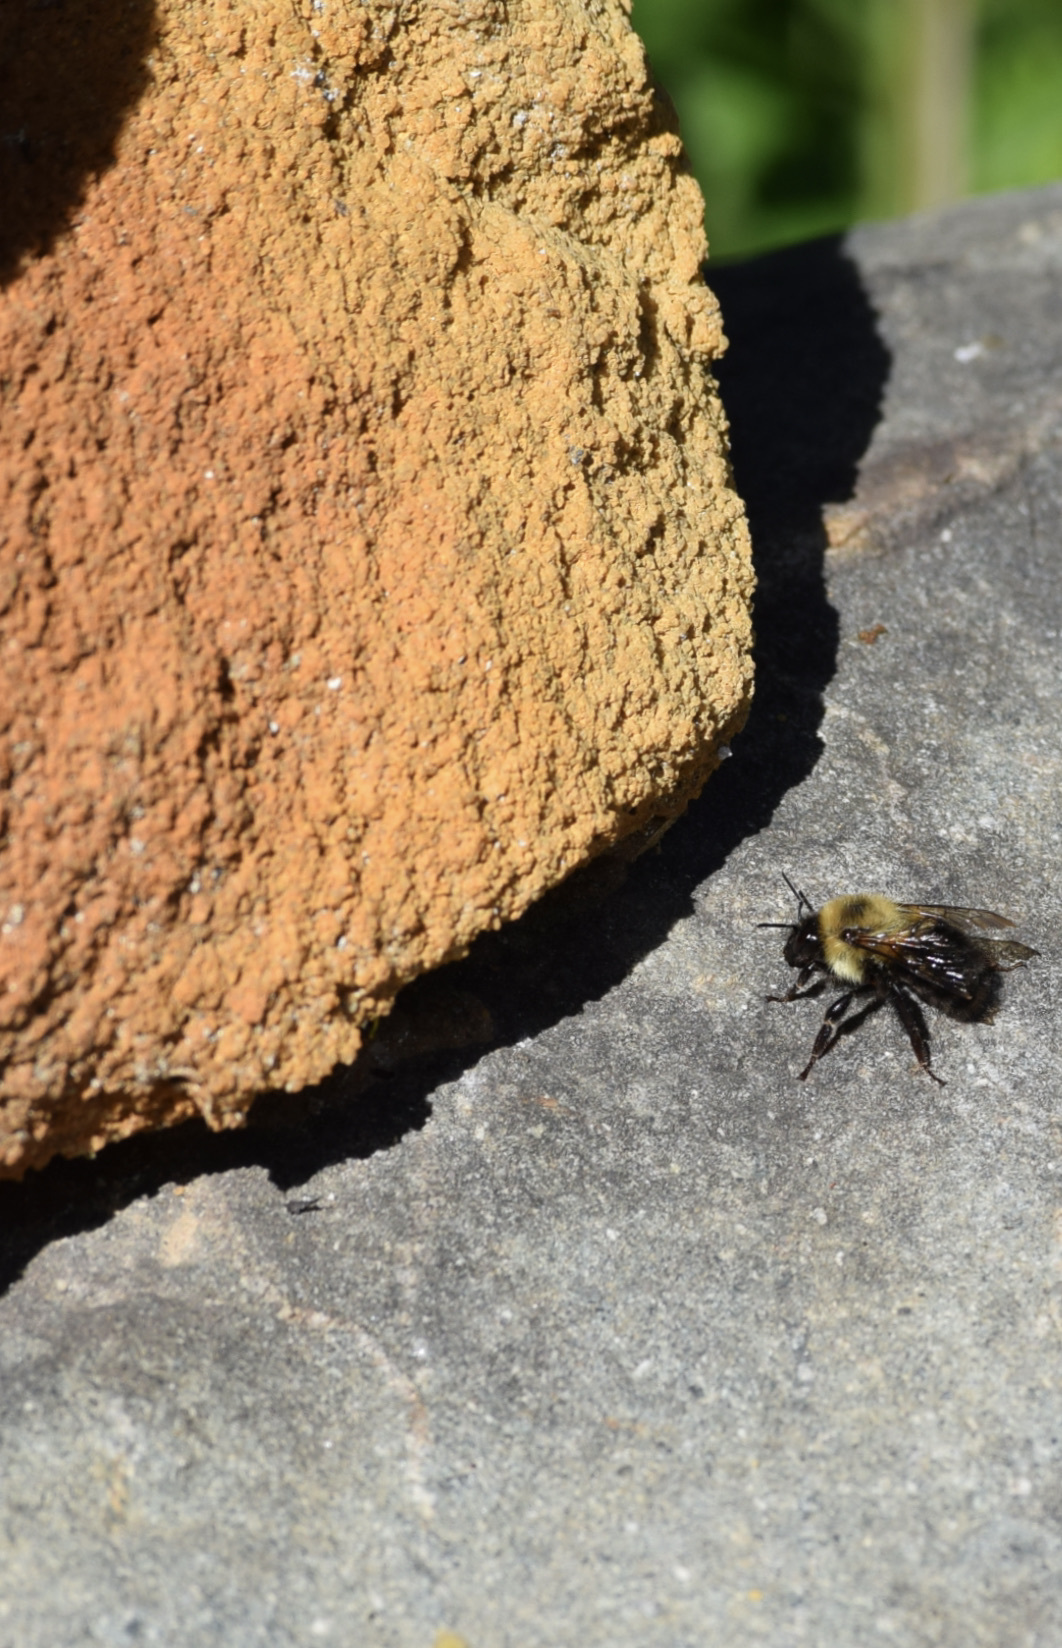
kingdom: Animalia
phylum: Arthropoda
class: Insecta
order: Hymenoptera
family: Apidae
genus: Bombus
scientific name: Bombus bimaculatus
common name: Two-spotted bumble bee
